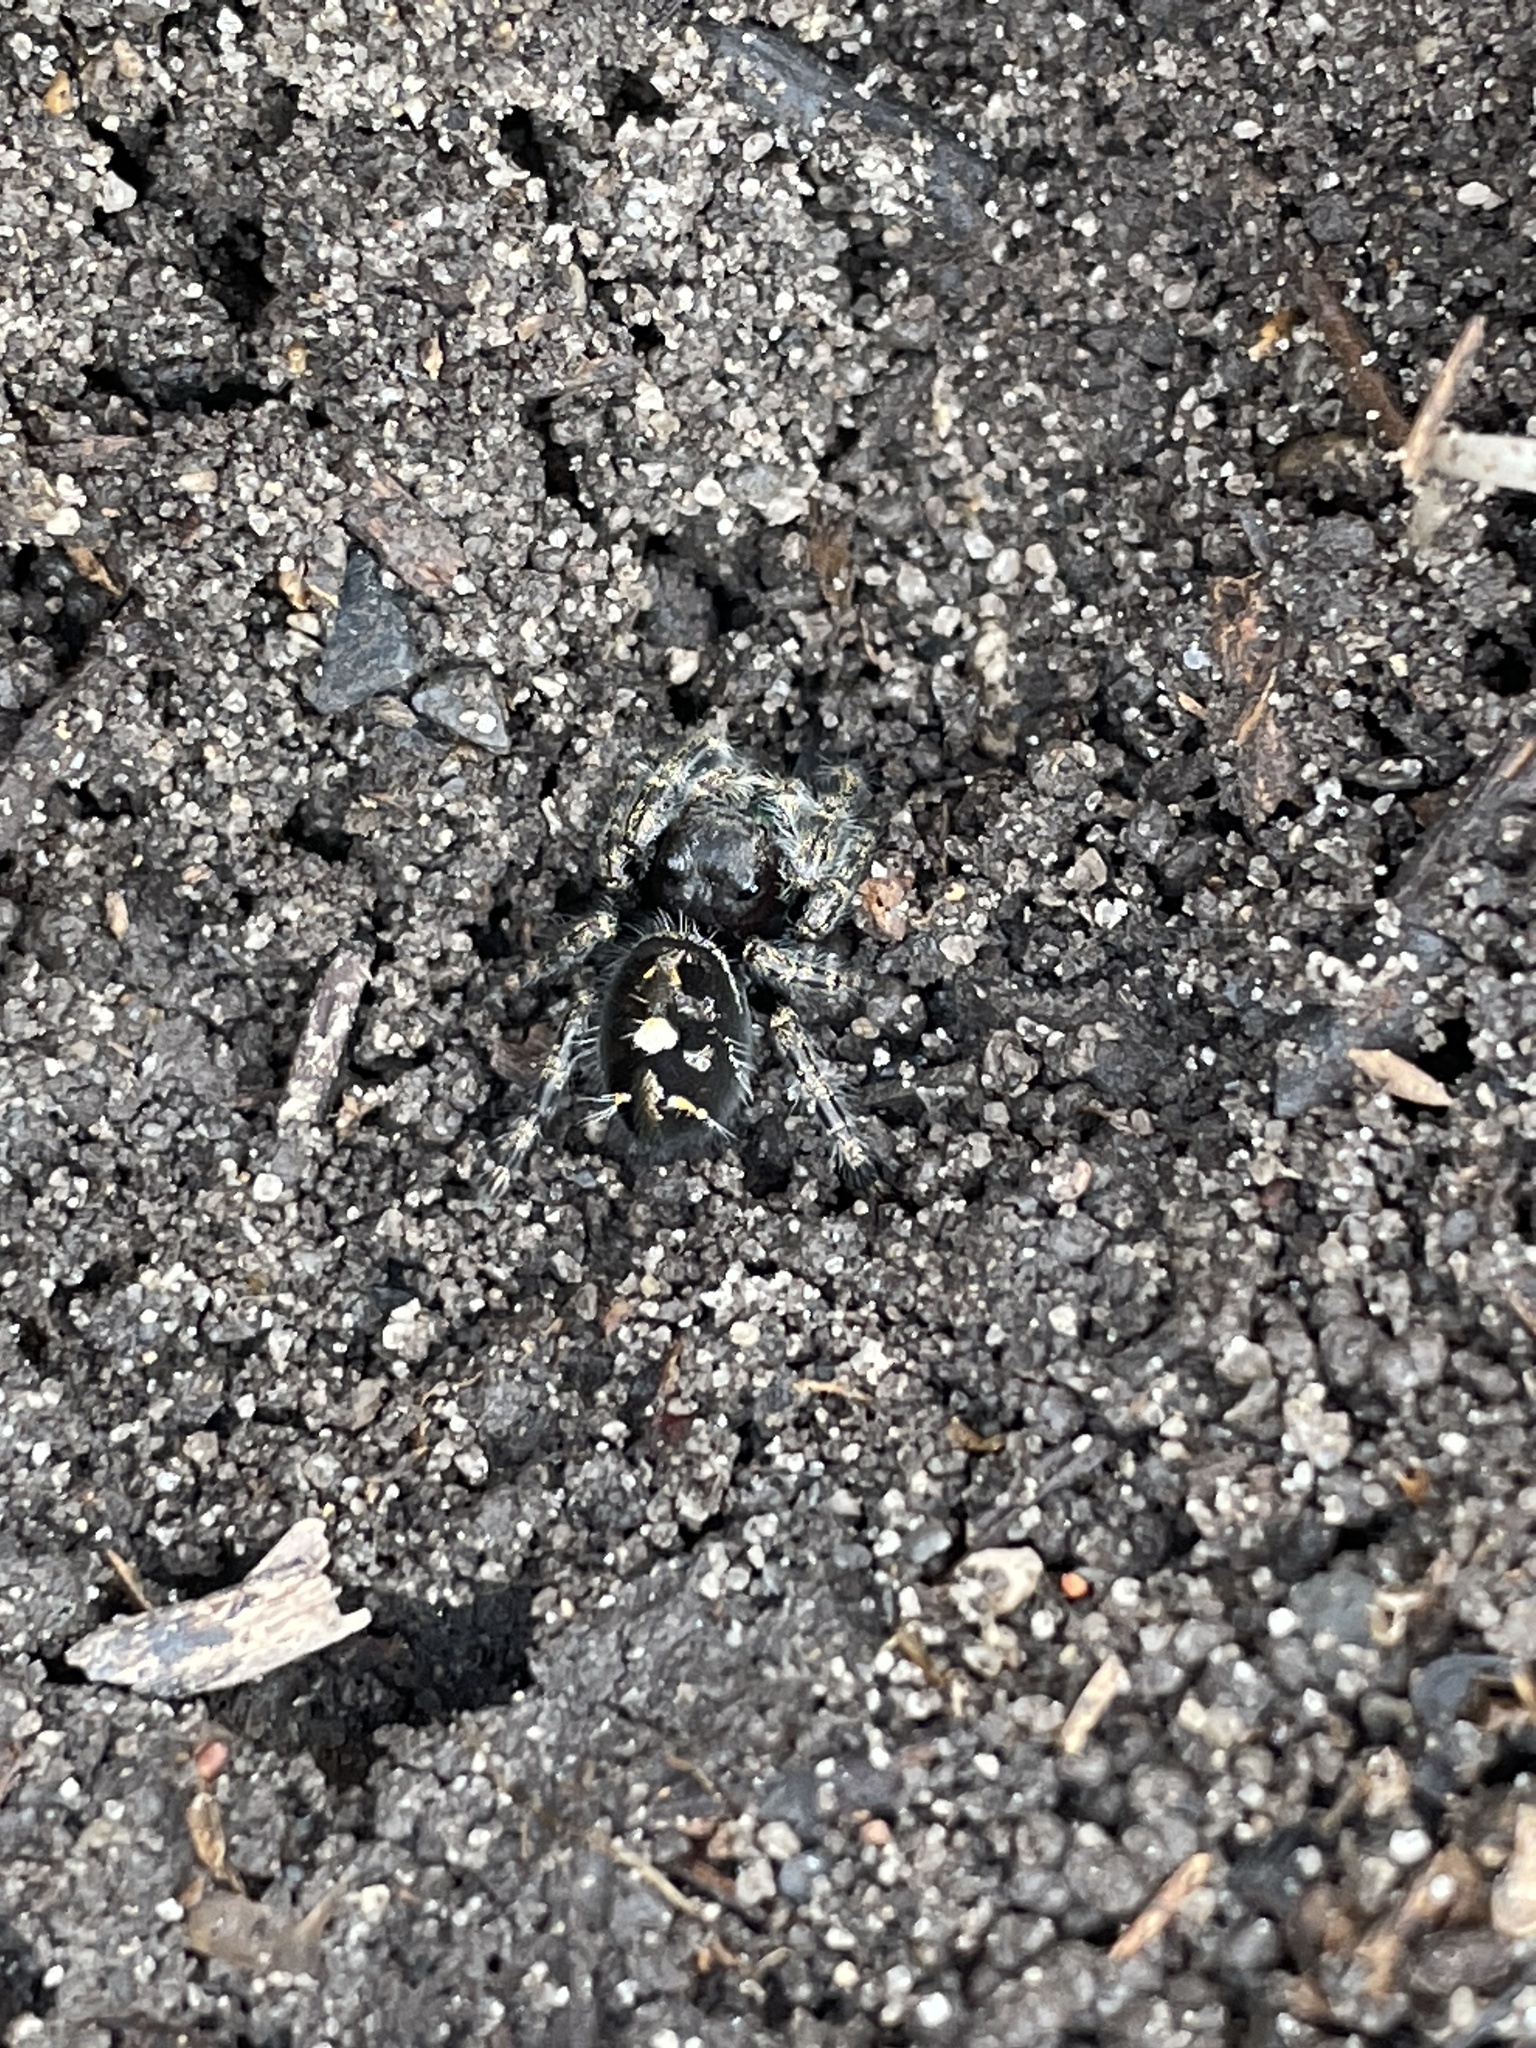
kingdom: Animalia
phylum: Arthropoda
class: Arachnida
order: Araneae
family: Salticidae
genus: Phidippus
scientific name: Phidippus audax
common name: Bold jumper
